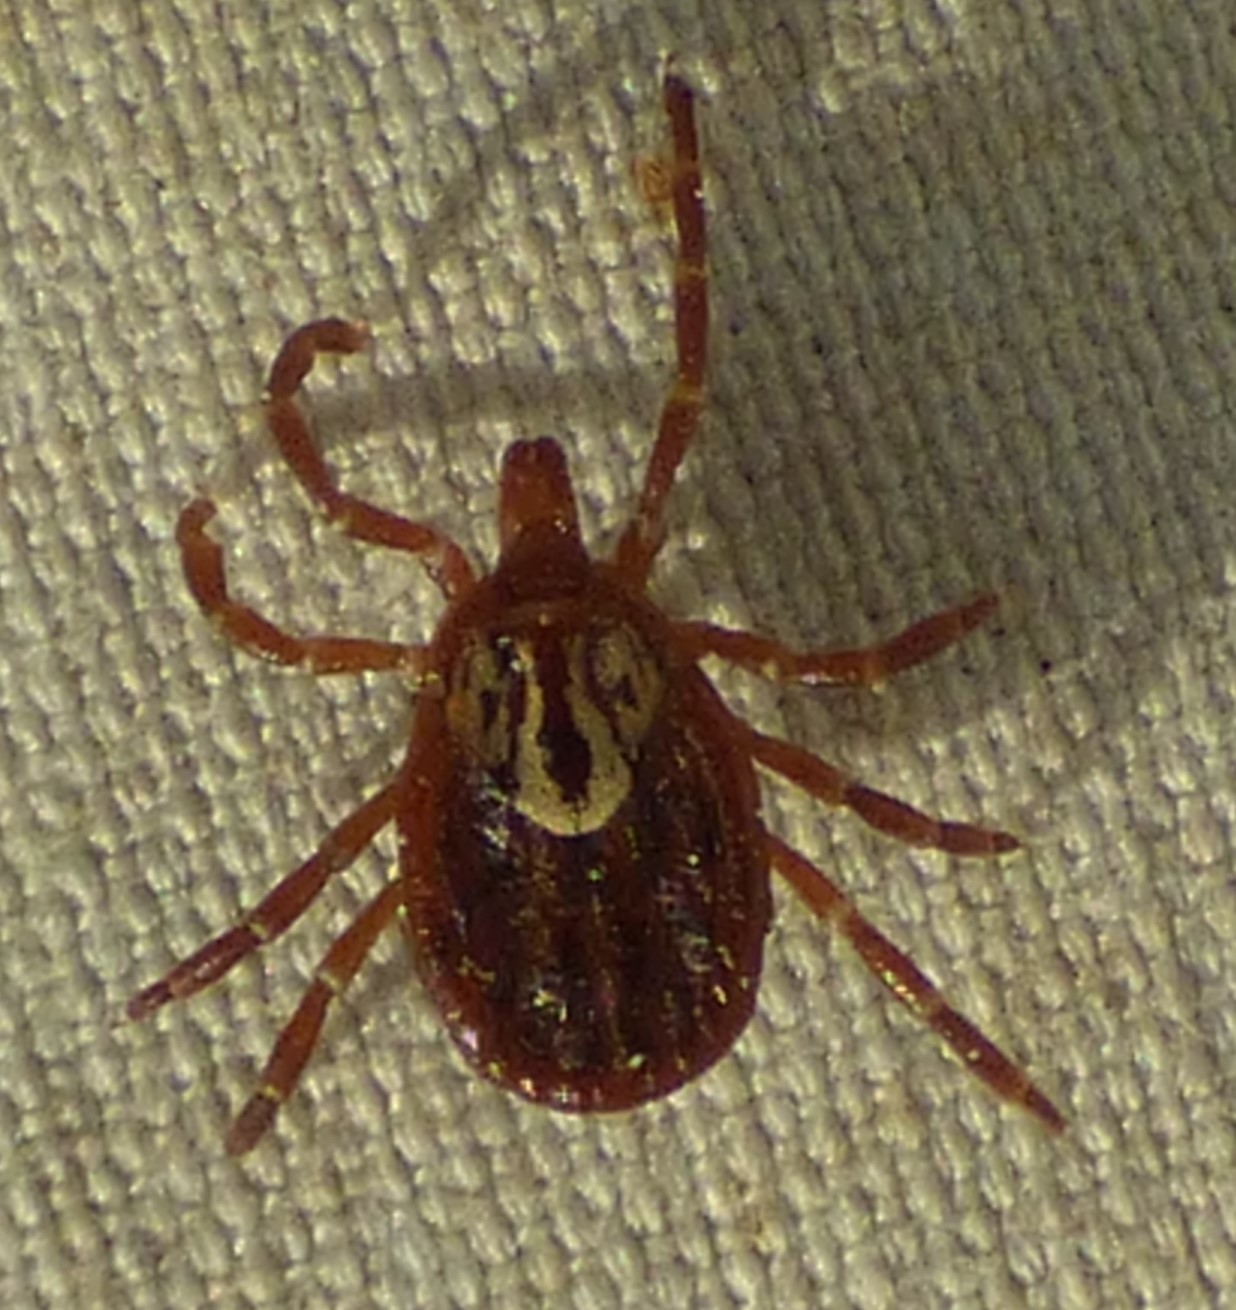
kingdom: Animalia
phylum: Arthropoda
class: Arachnida
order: Ixodida
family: Ixodidae
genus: Amblyomma
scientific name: Amblyomma maculatum
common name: Gulf coast tick
